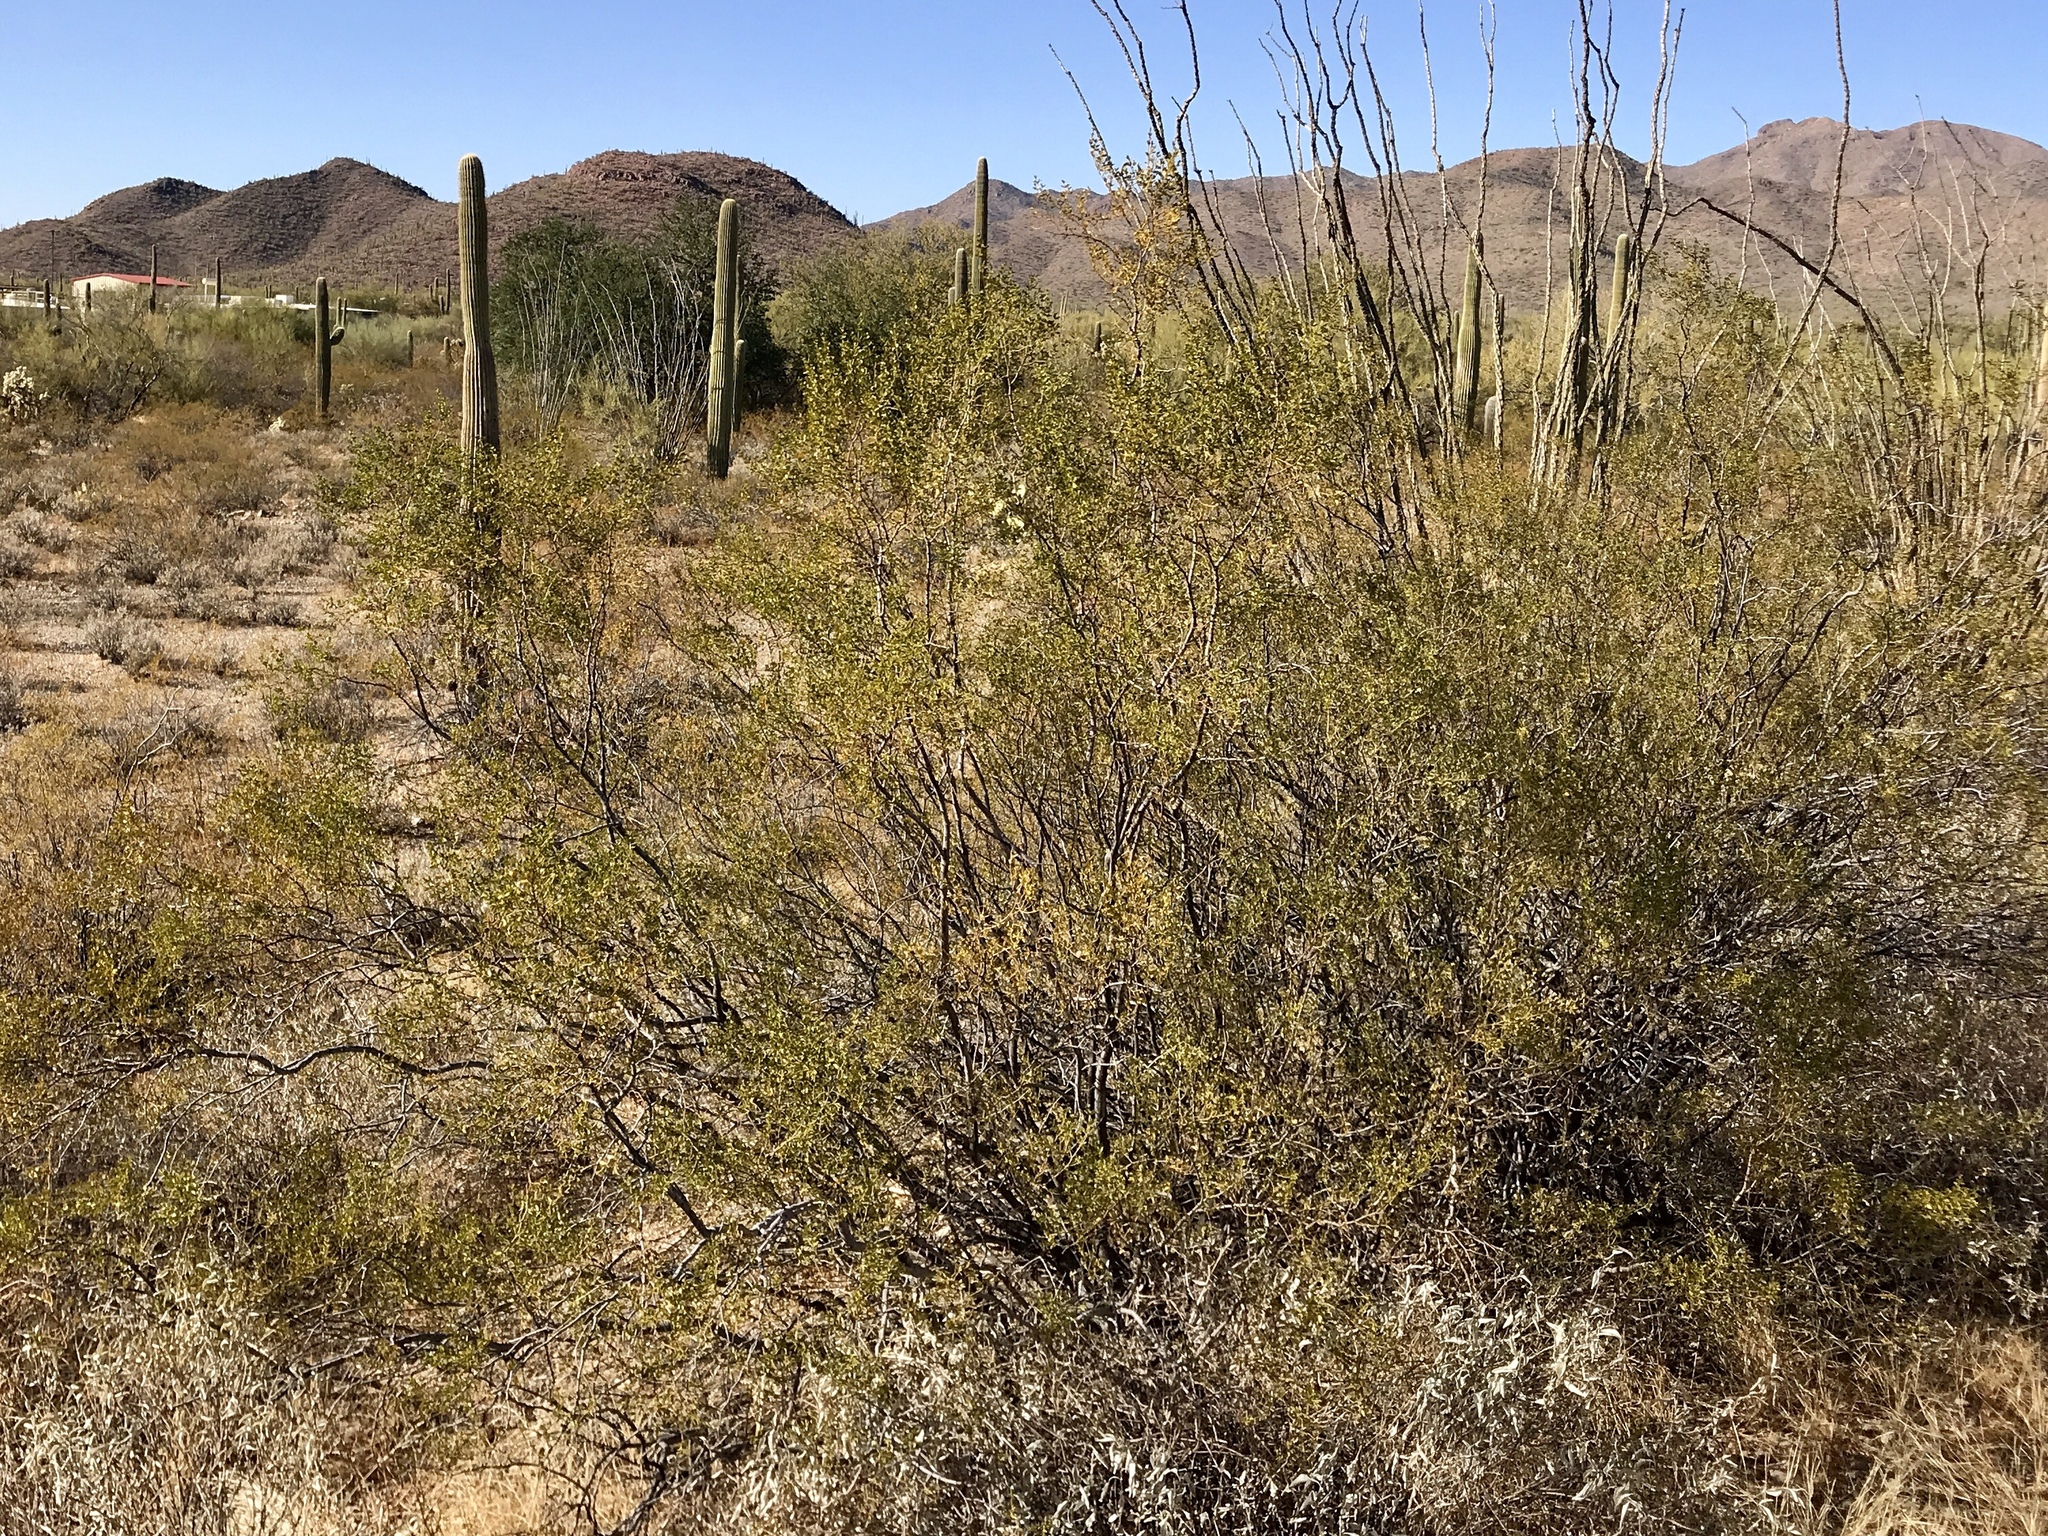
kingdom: Plantae
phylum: Tracheophyta
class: Magnoliopsida
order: Zygophyllales
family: Zygophyllaceae
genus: Larrea
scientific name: Larrea tridentata
